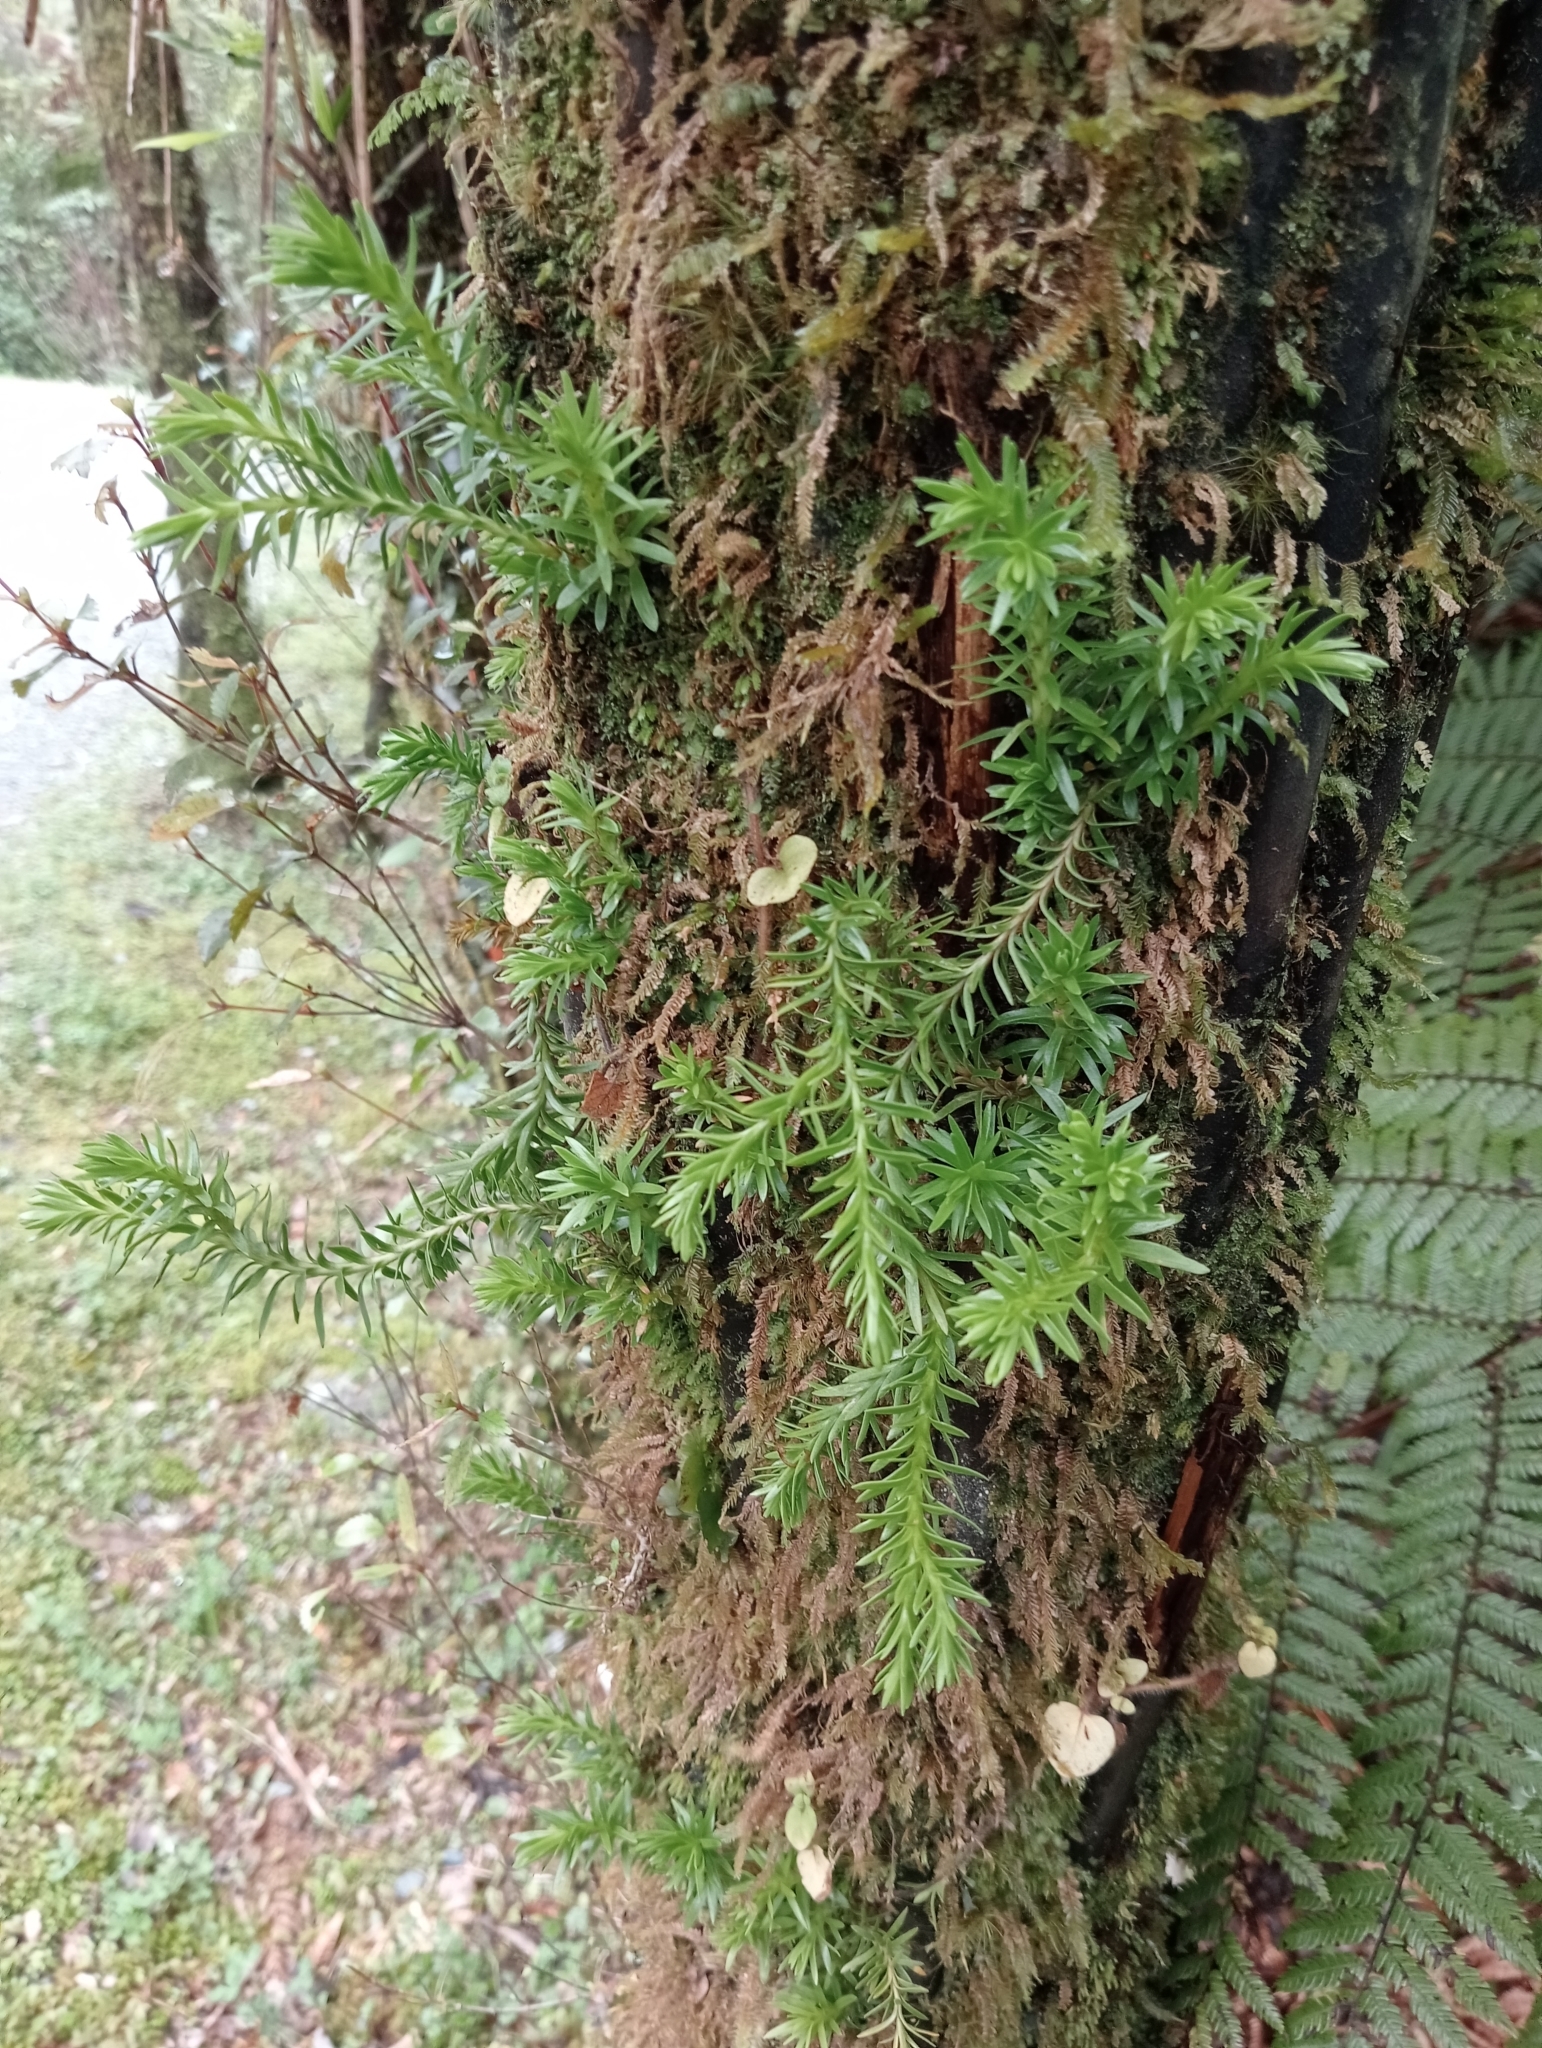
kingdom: Plantae
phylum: Tracheophyta
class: Lycopodiopsida
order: Lycopodiales
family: Lycopodiaceae
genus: Phlegmariurus
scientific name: Phlegmariurus varius
